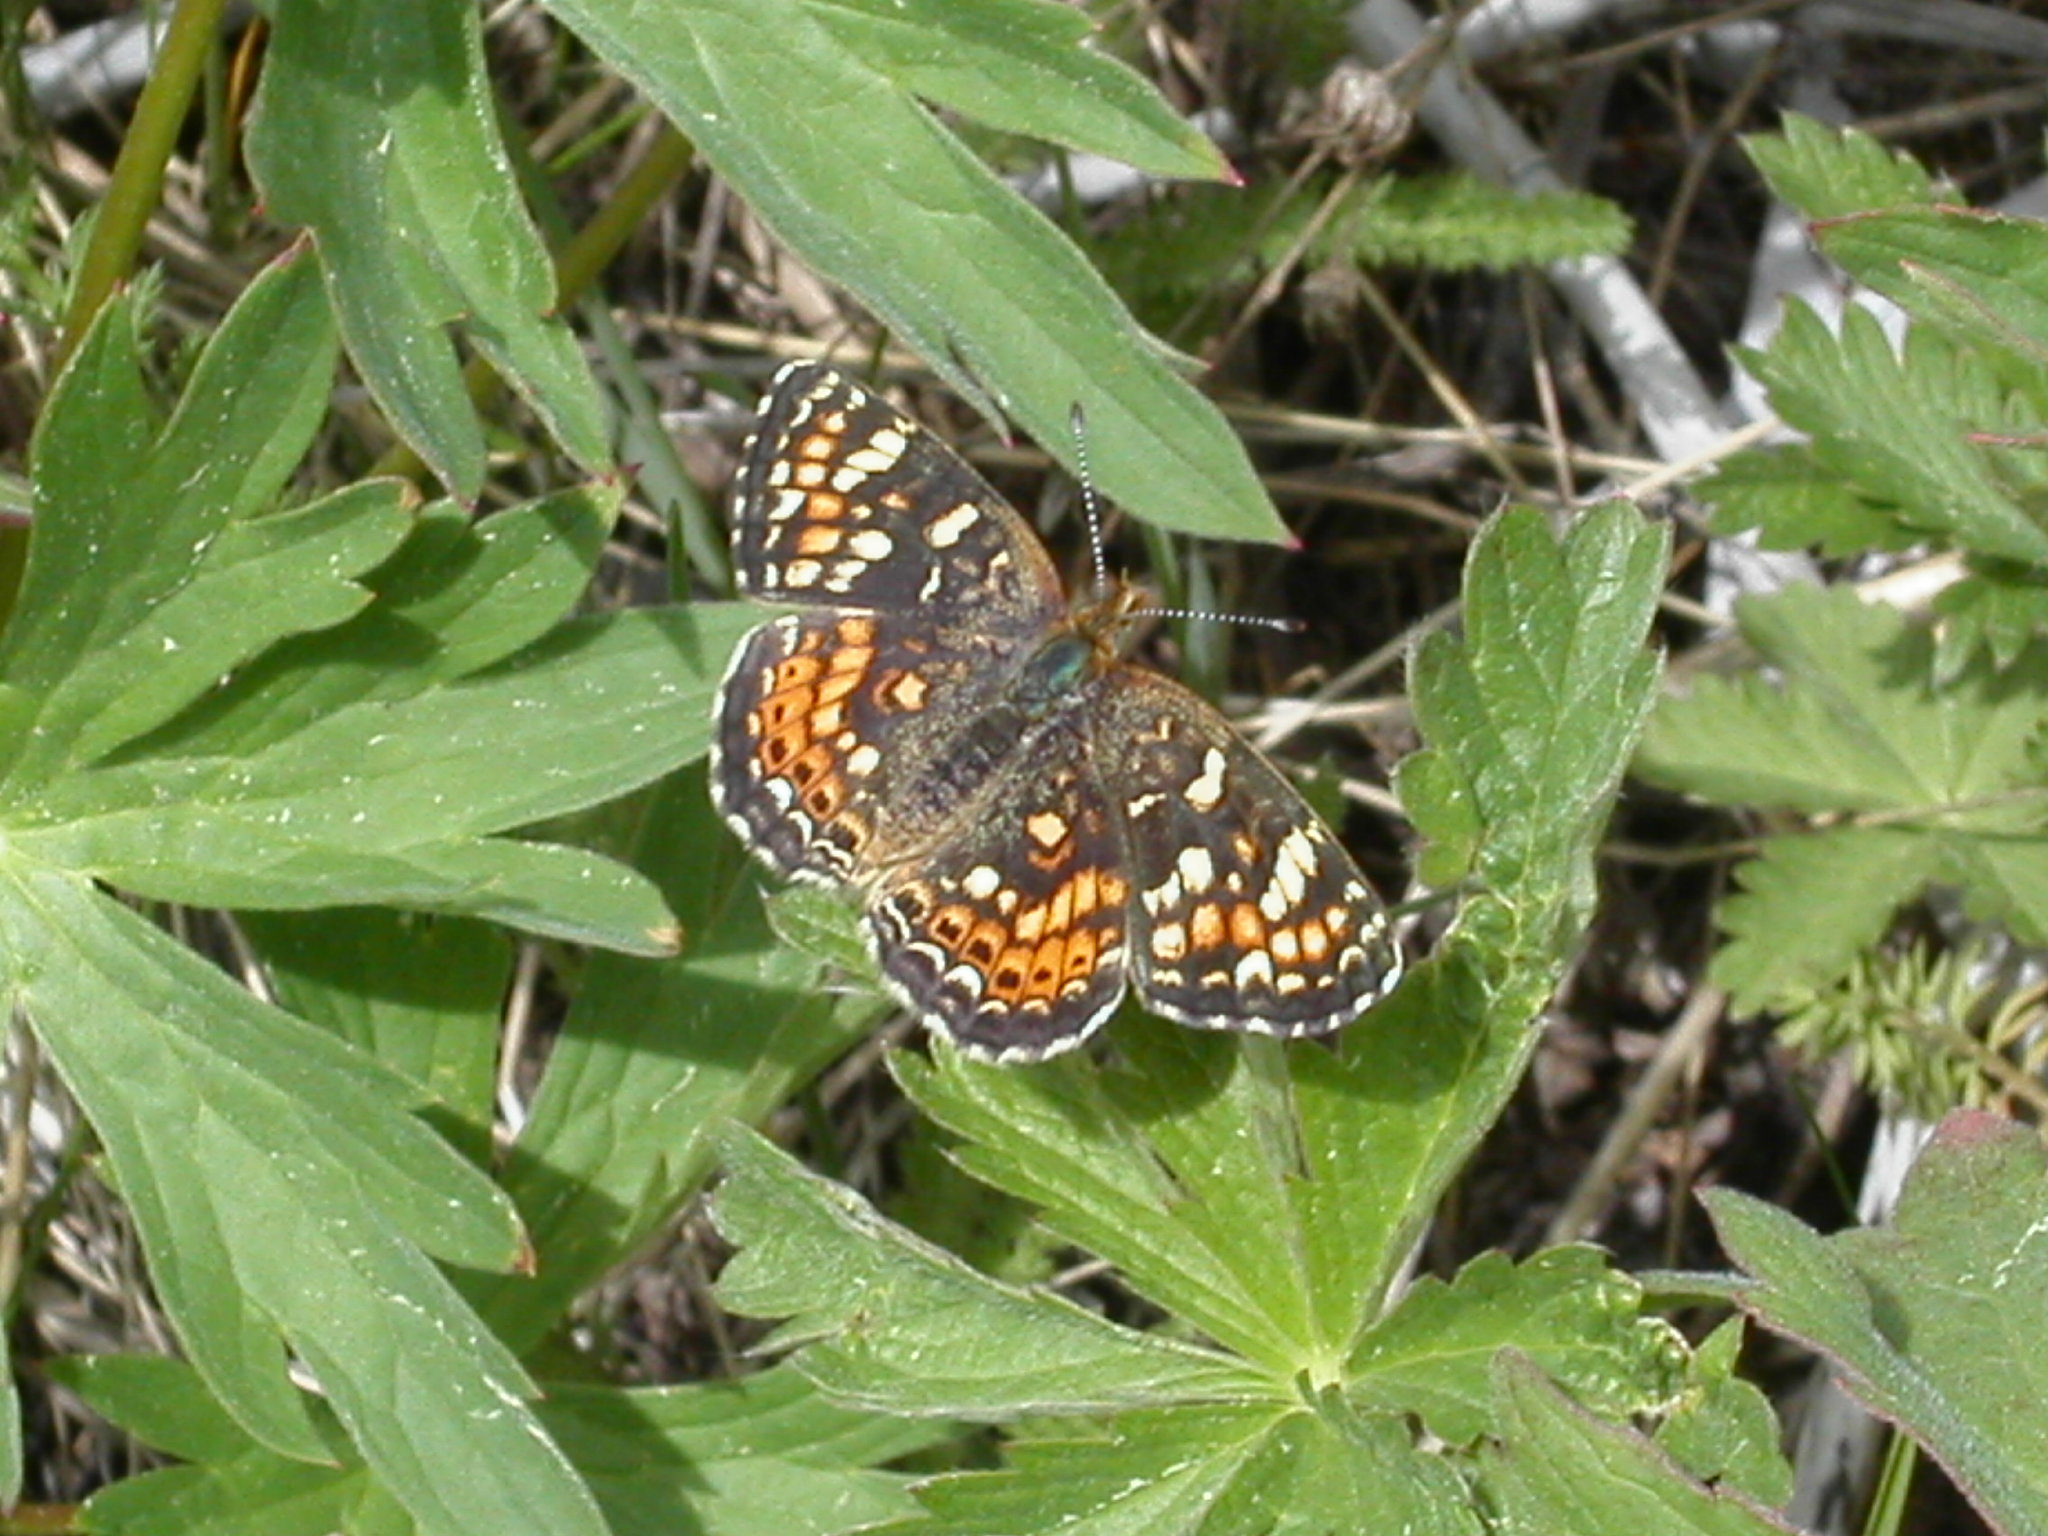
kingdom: Animalia
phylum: Arthropoda
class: Insecta
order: Lepidoptera
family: Nymphalidae
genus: Phyciodes
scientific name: Phyciodes tharos
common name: Pearl crescent
